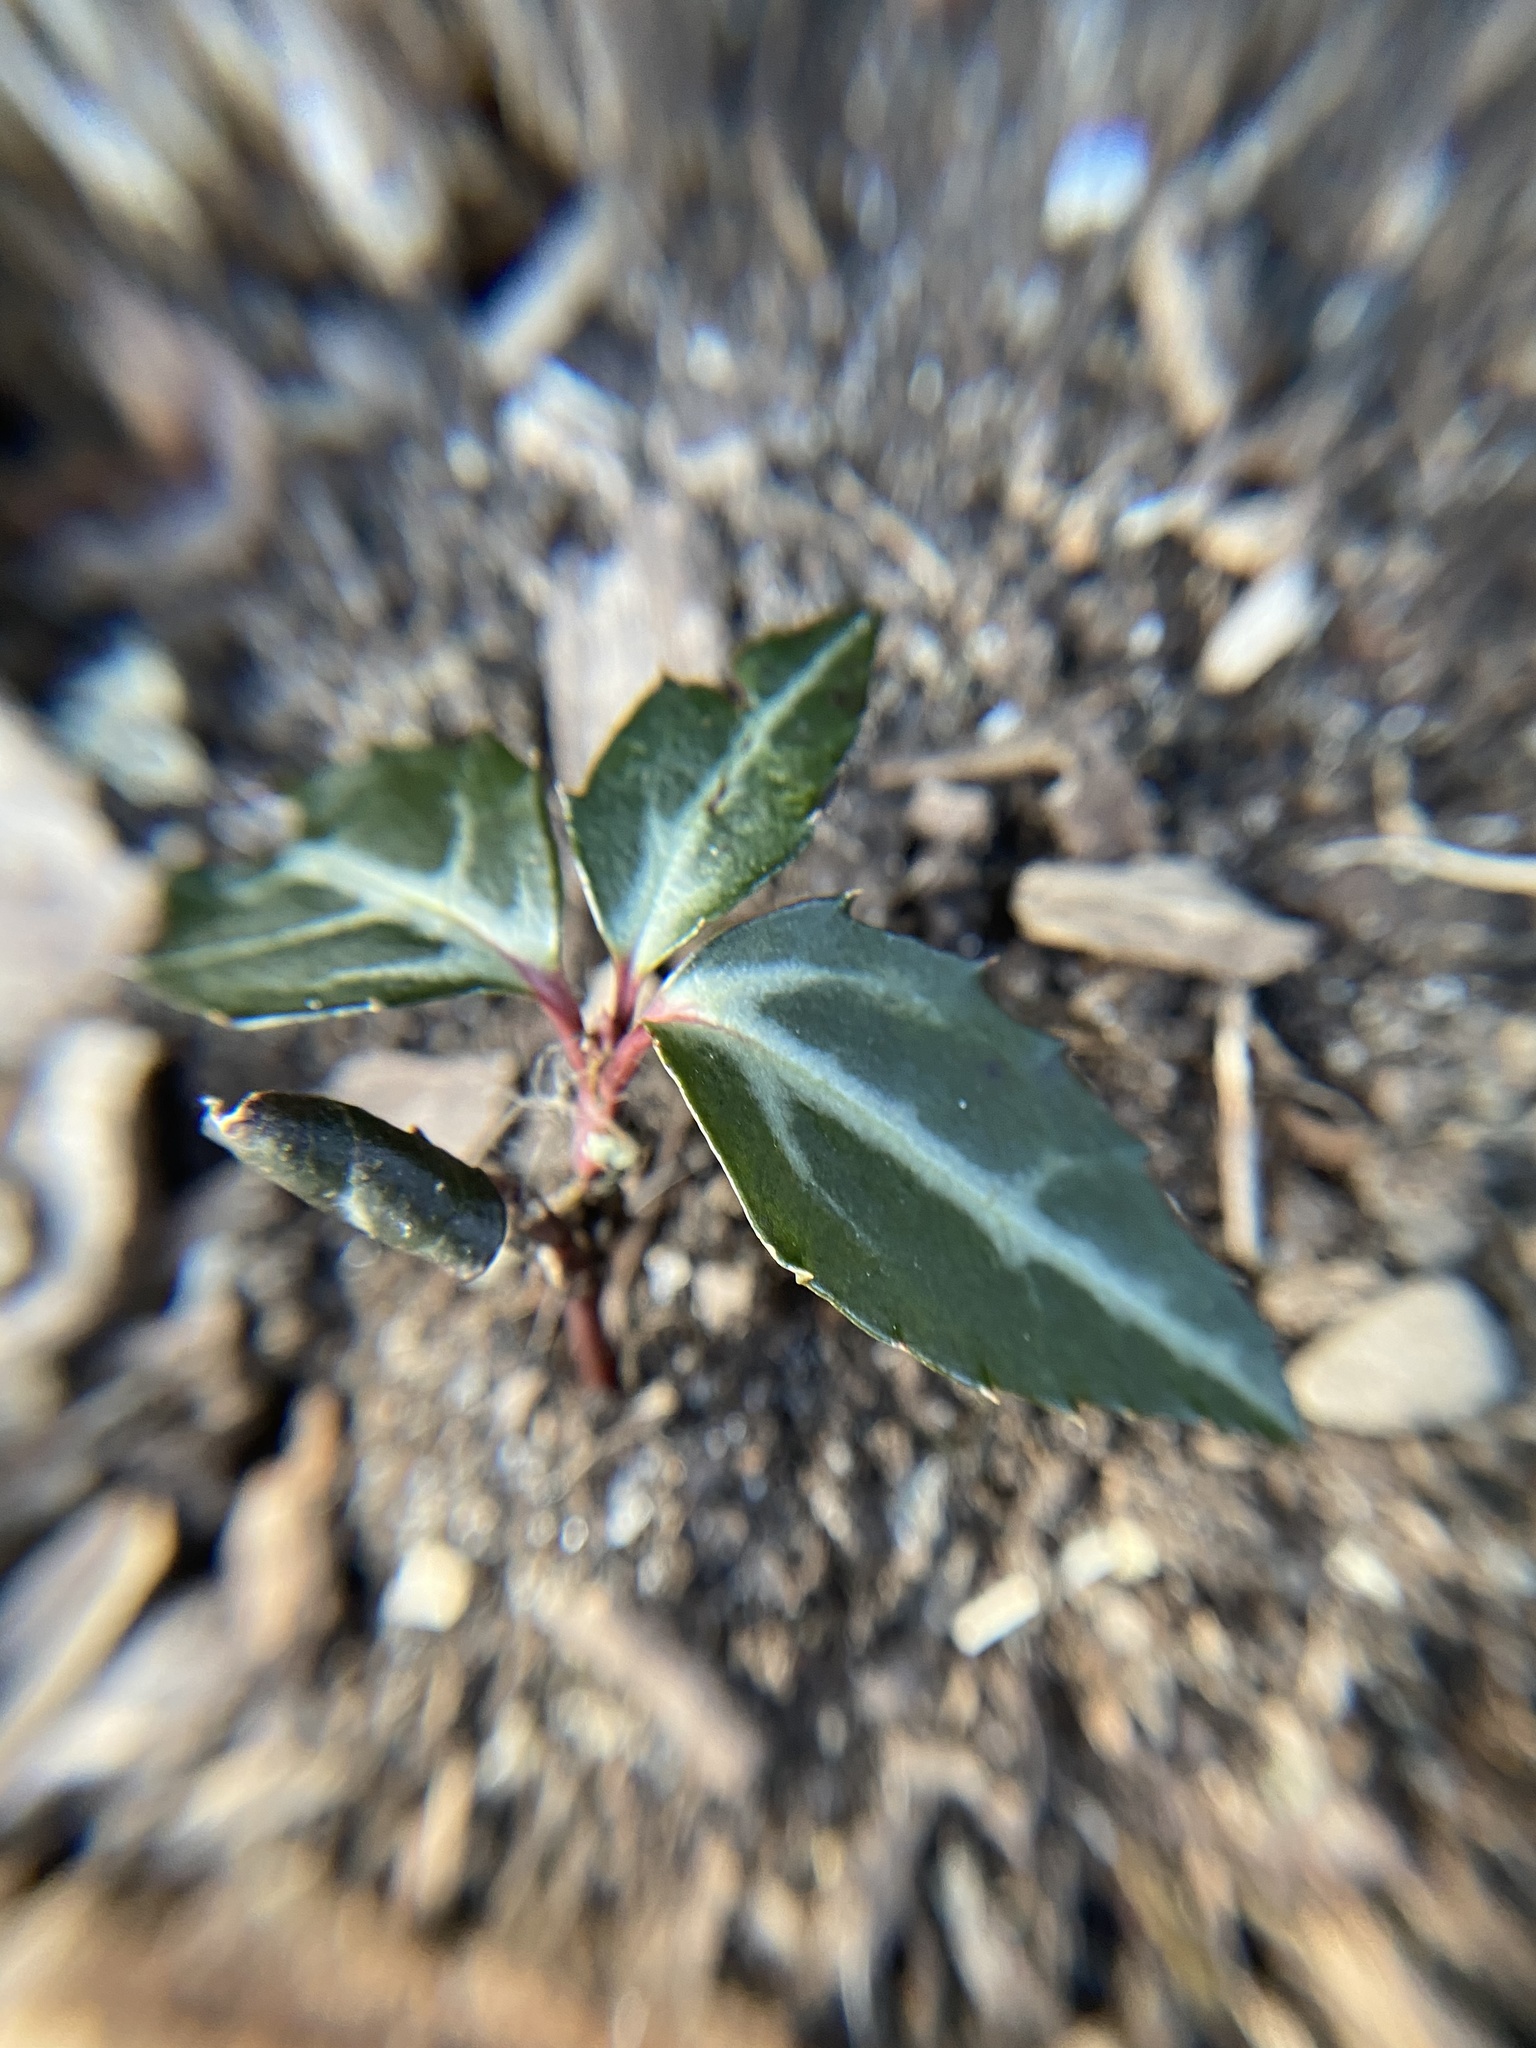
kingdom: Plantae
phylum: Tracheophyta
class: Magnoliopsida
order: Ericales
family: Ericaceae
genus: Chimaphila
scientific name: Chimaphila maculata
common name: Spotted pipsissewa
